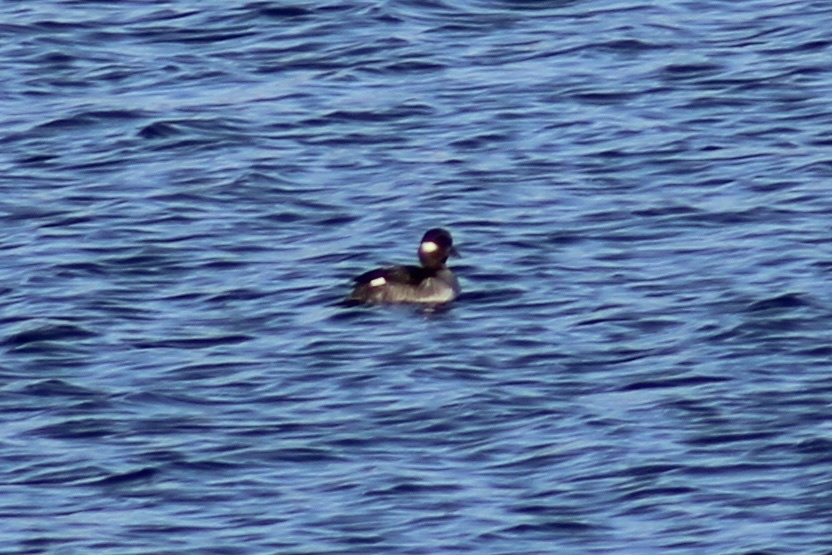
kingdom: Animalia
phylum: Chordata
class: Aves
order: Anseriformes
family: Anatidae
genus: Bucephala
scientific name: Bucephala albeola
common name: Bufflehead
